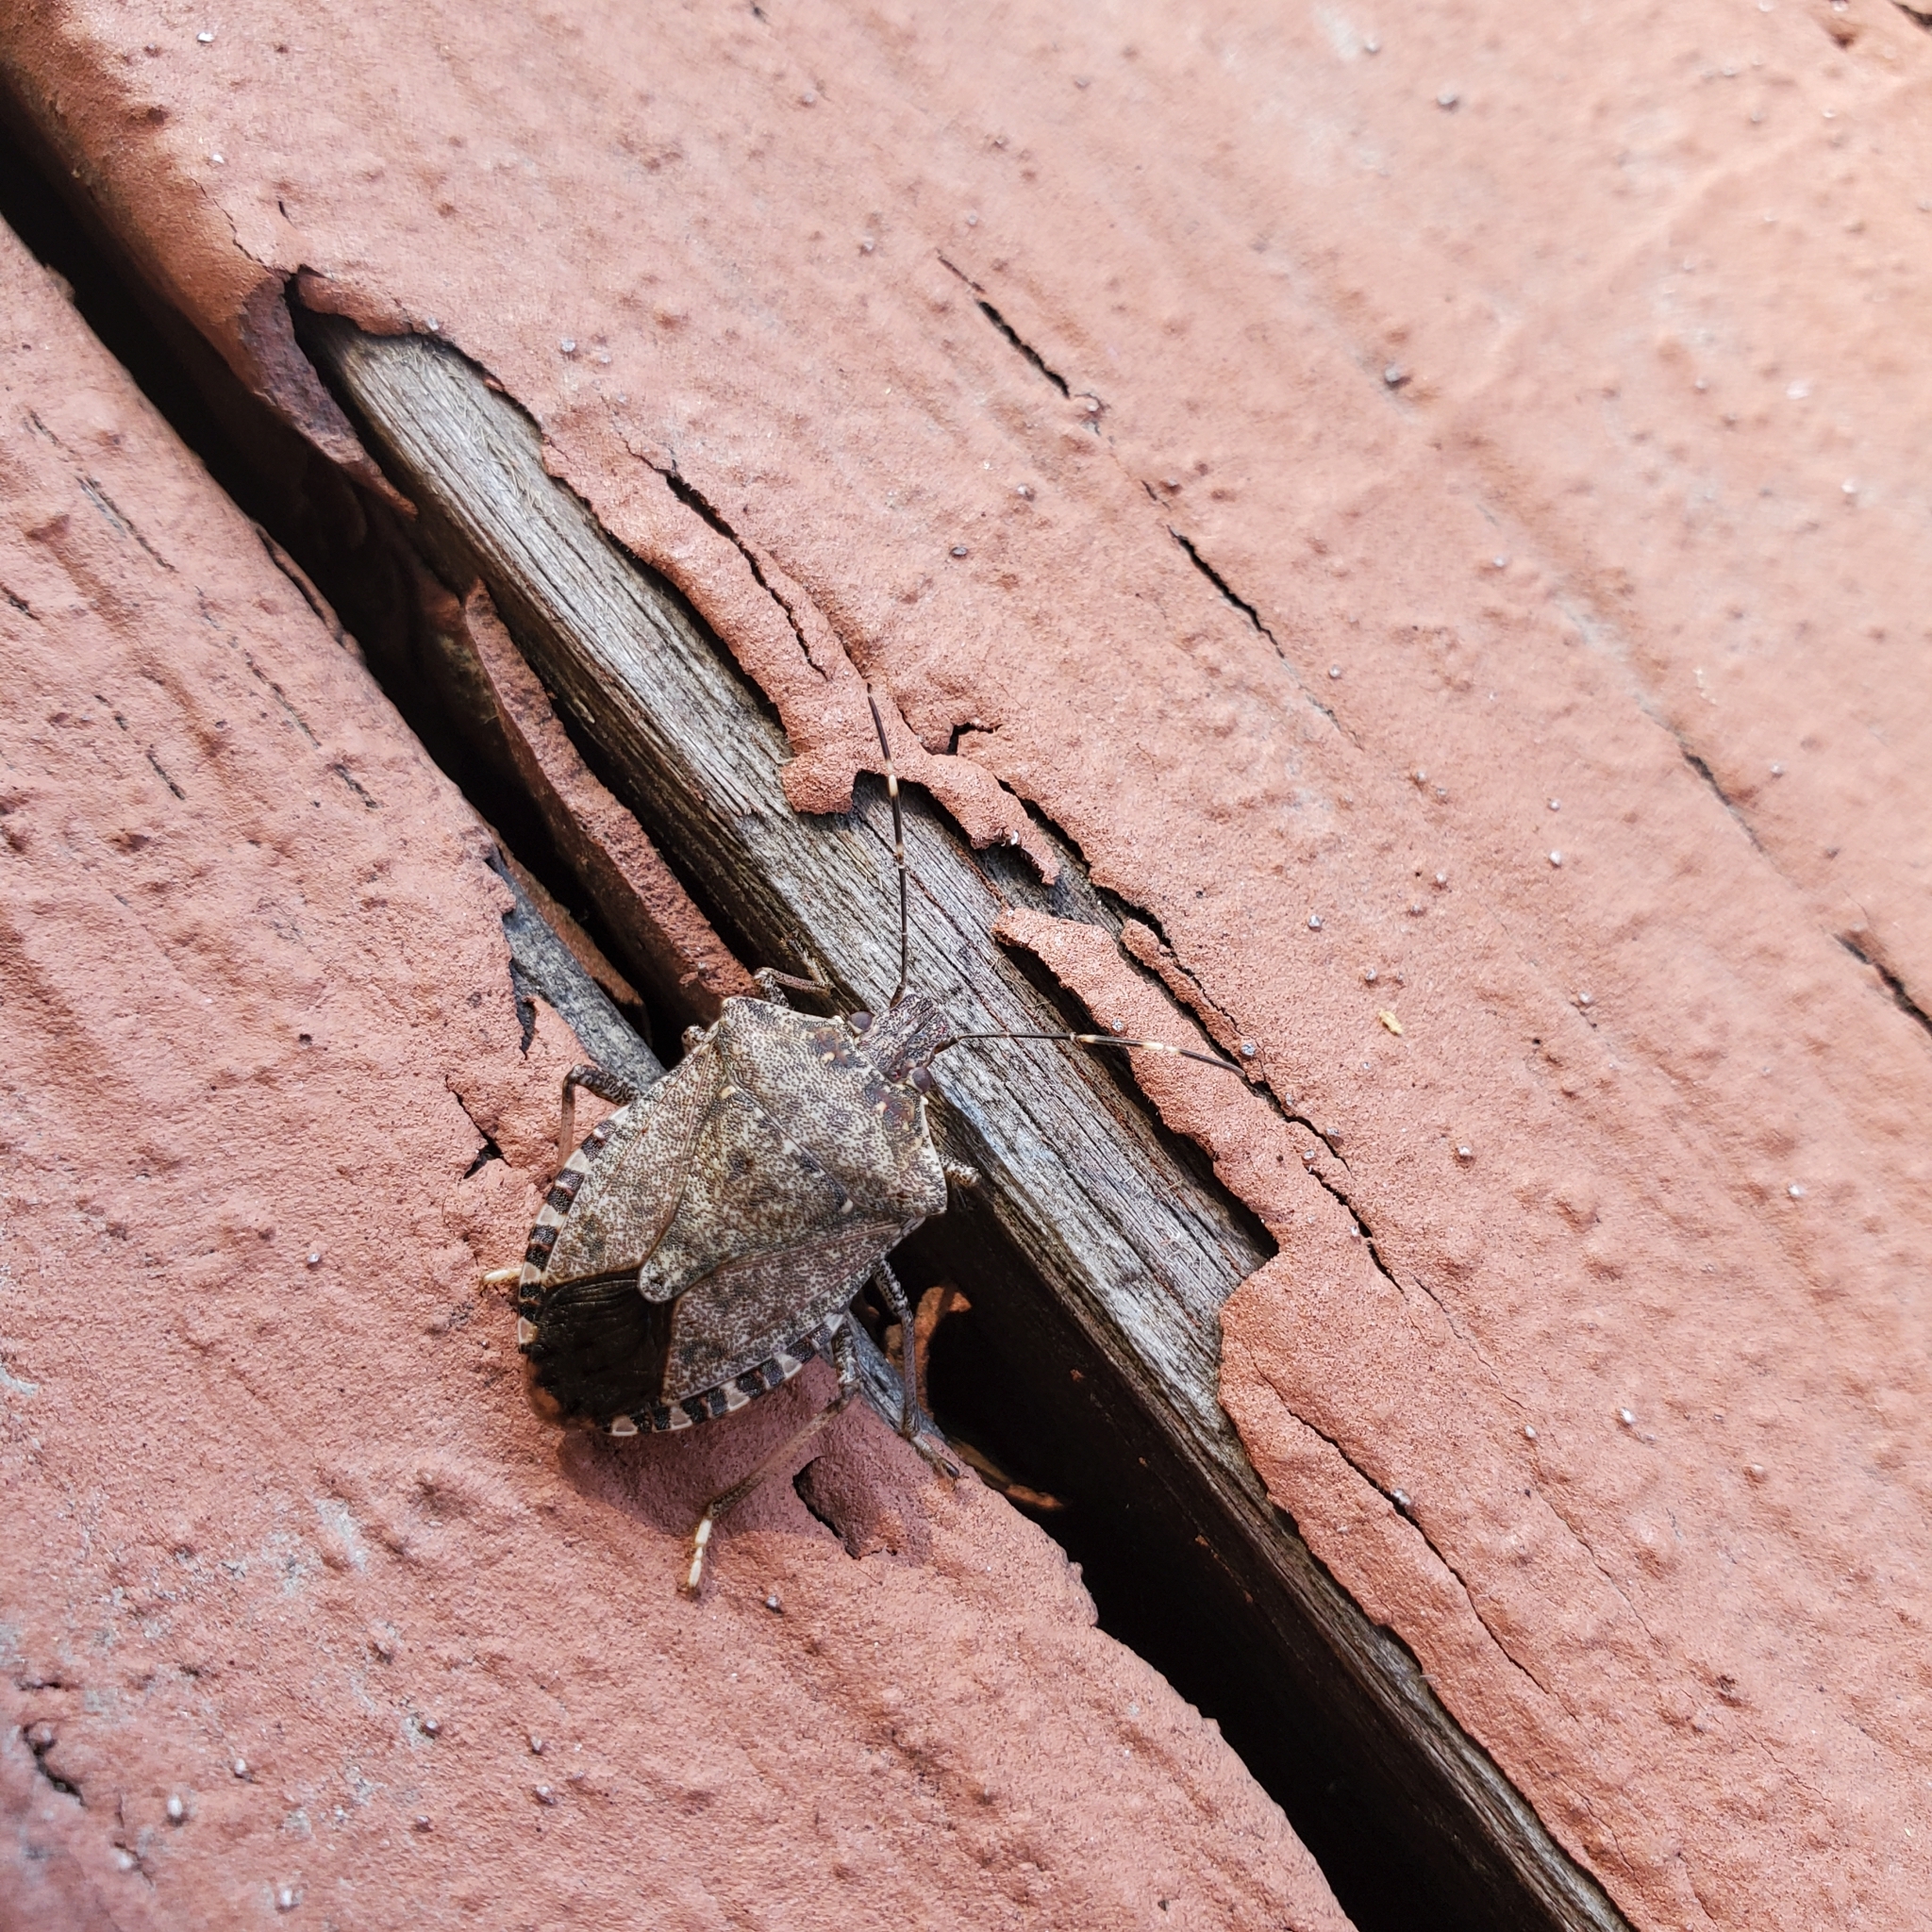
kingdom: Animalia
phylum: Arthropoda
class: Insecta
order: Hemiptera
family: Pentatomidae
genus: Halyomorpha
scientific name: Halyomorpha halys
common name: Brown marmorated stink bug
